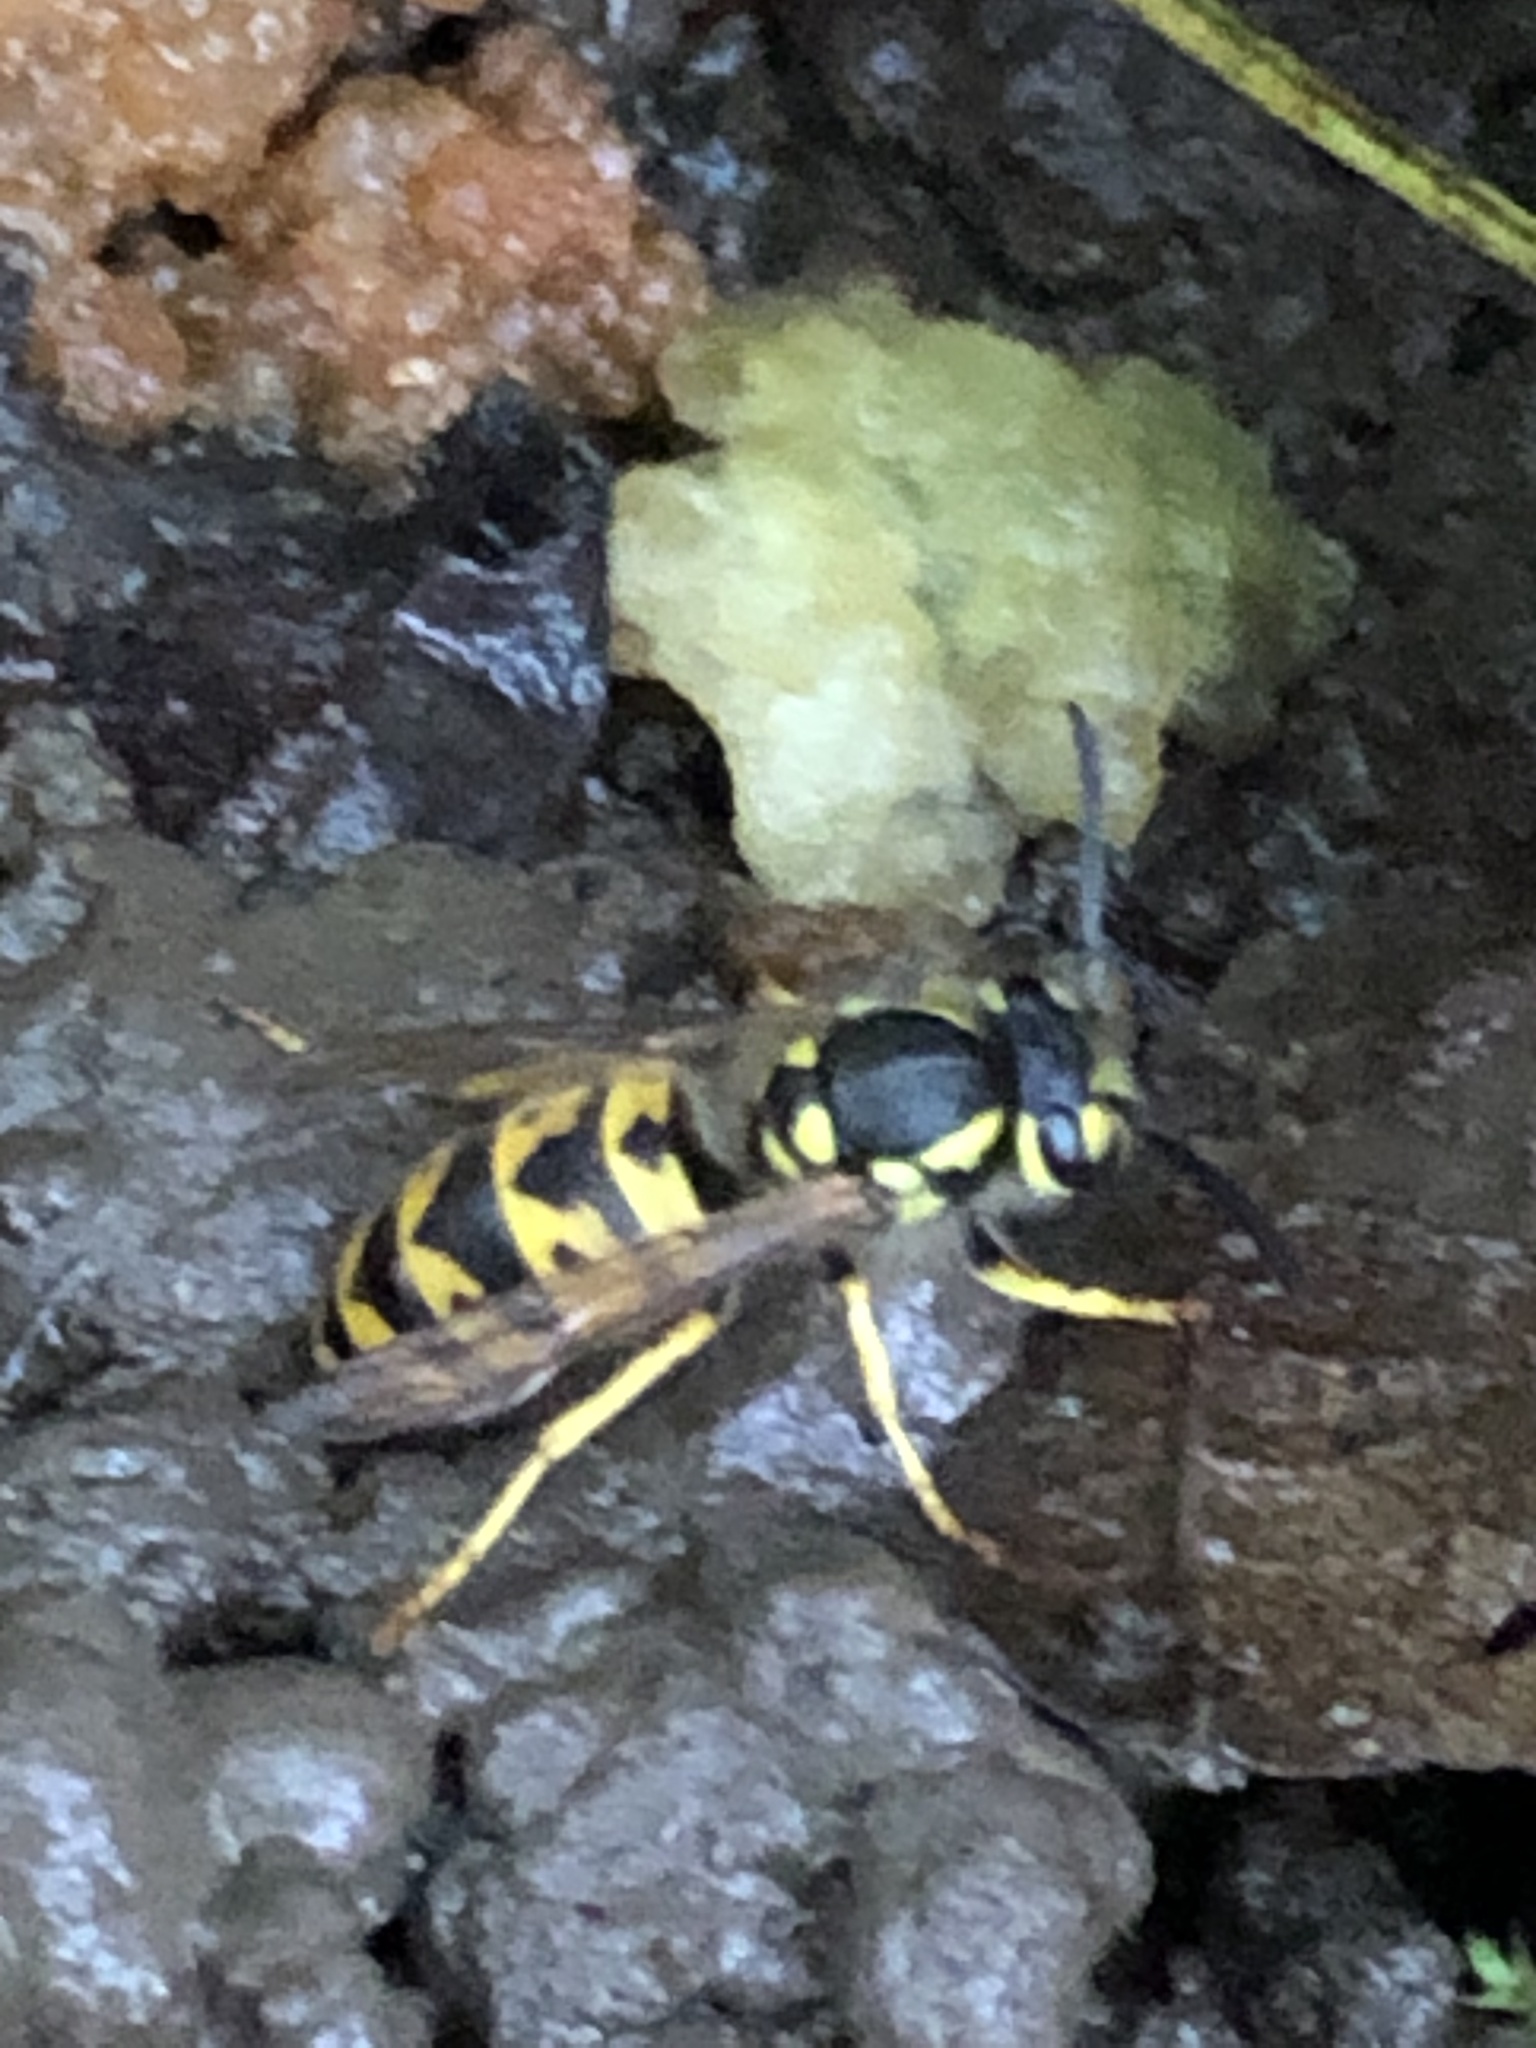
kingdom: Animalia
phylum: Arthropoda
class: Insecta
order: Hymenoptera
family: Vespidae
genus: Vespula
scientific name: Vespula germanica
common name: German wasp
